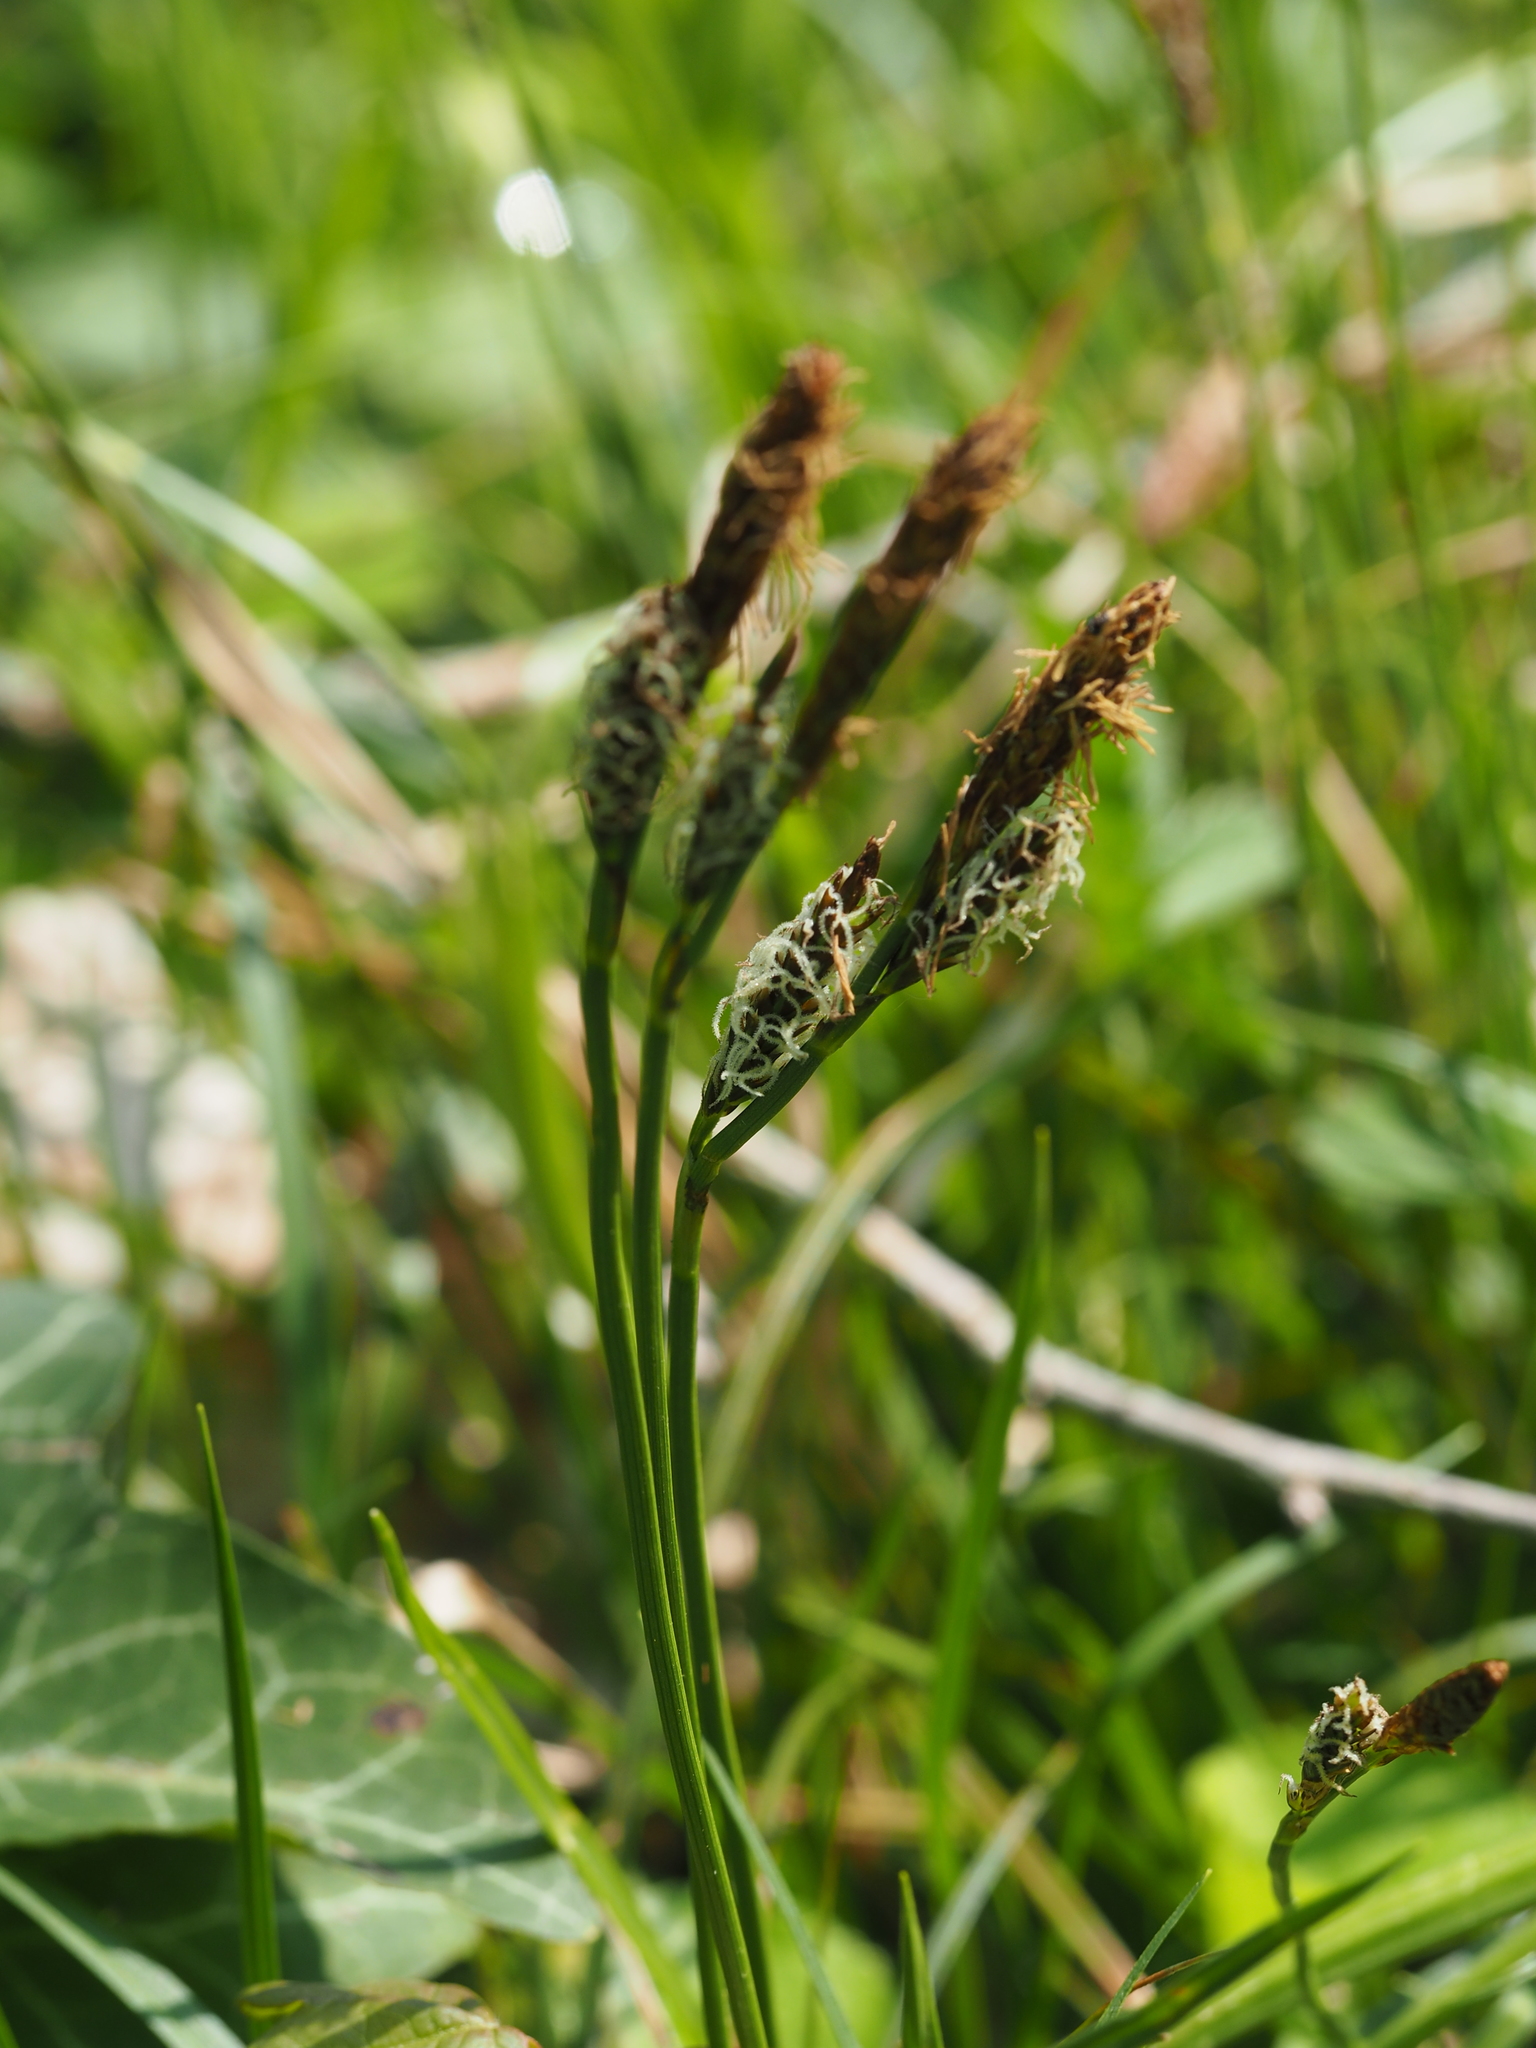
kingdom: Plantae
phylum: Tracheophyta
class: Liliopsida
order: Poales
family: Cyperaceae
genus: Carex
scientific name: Carex caryophyllea
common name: Spring sedge
